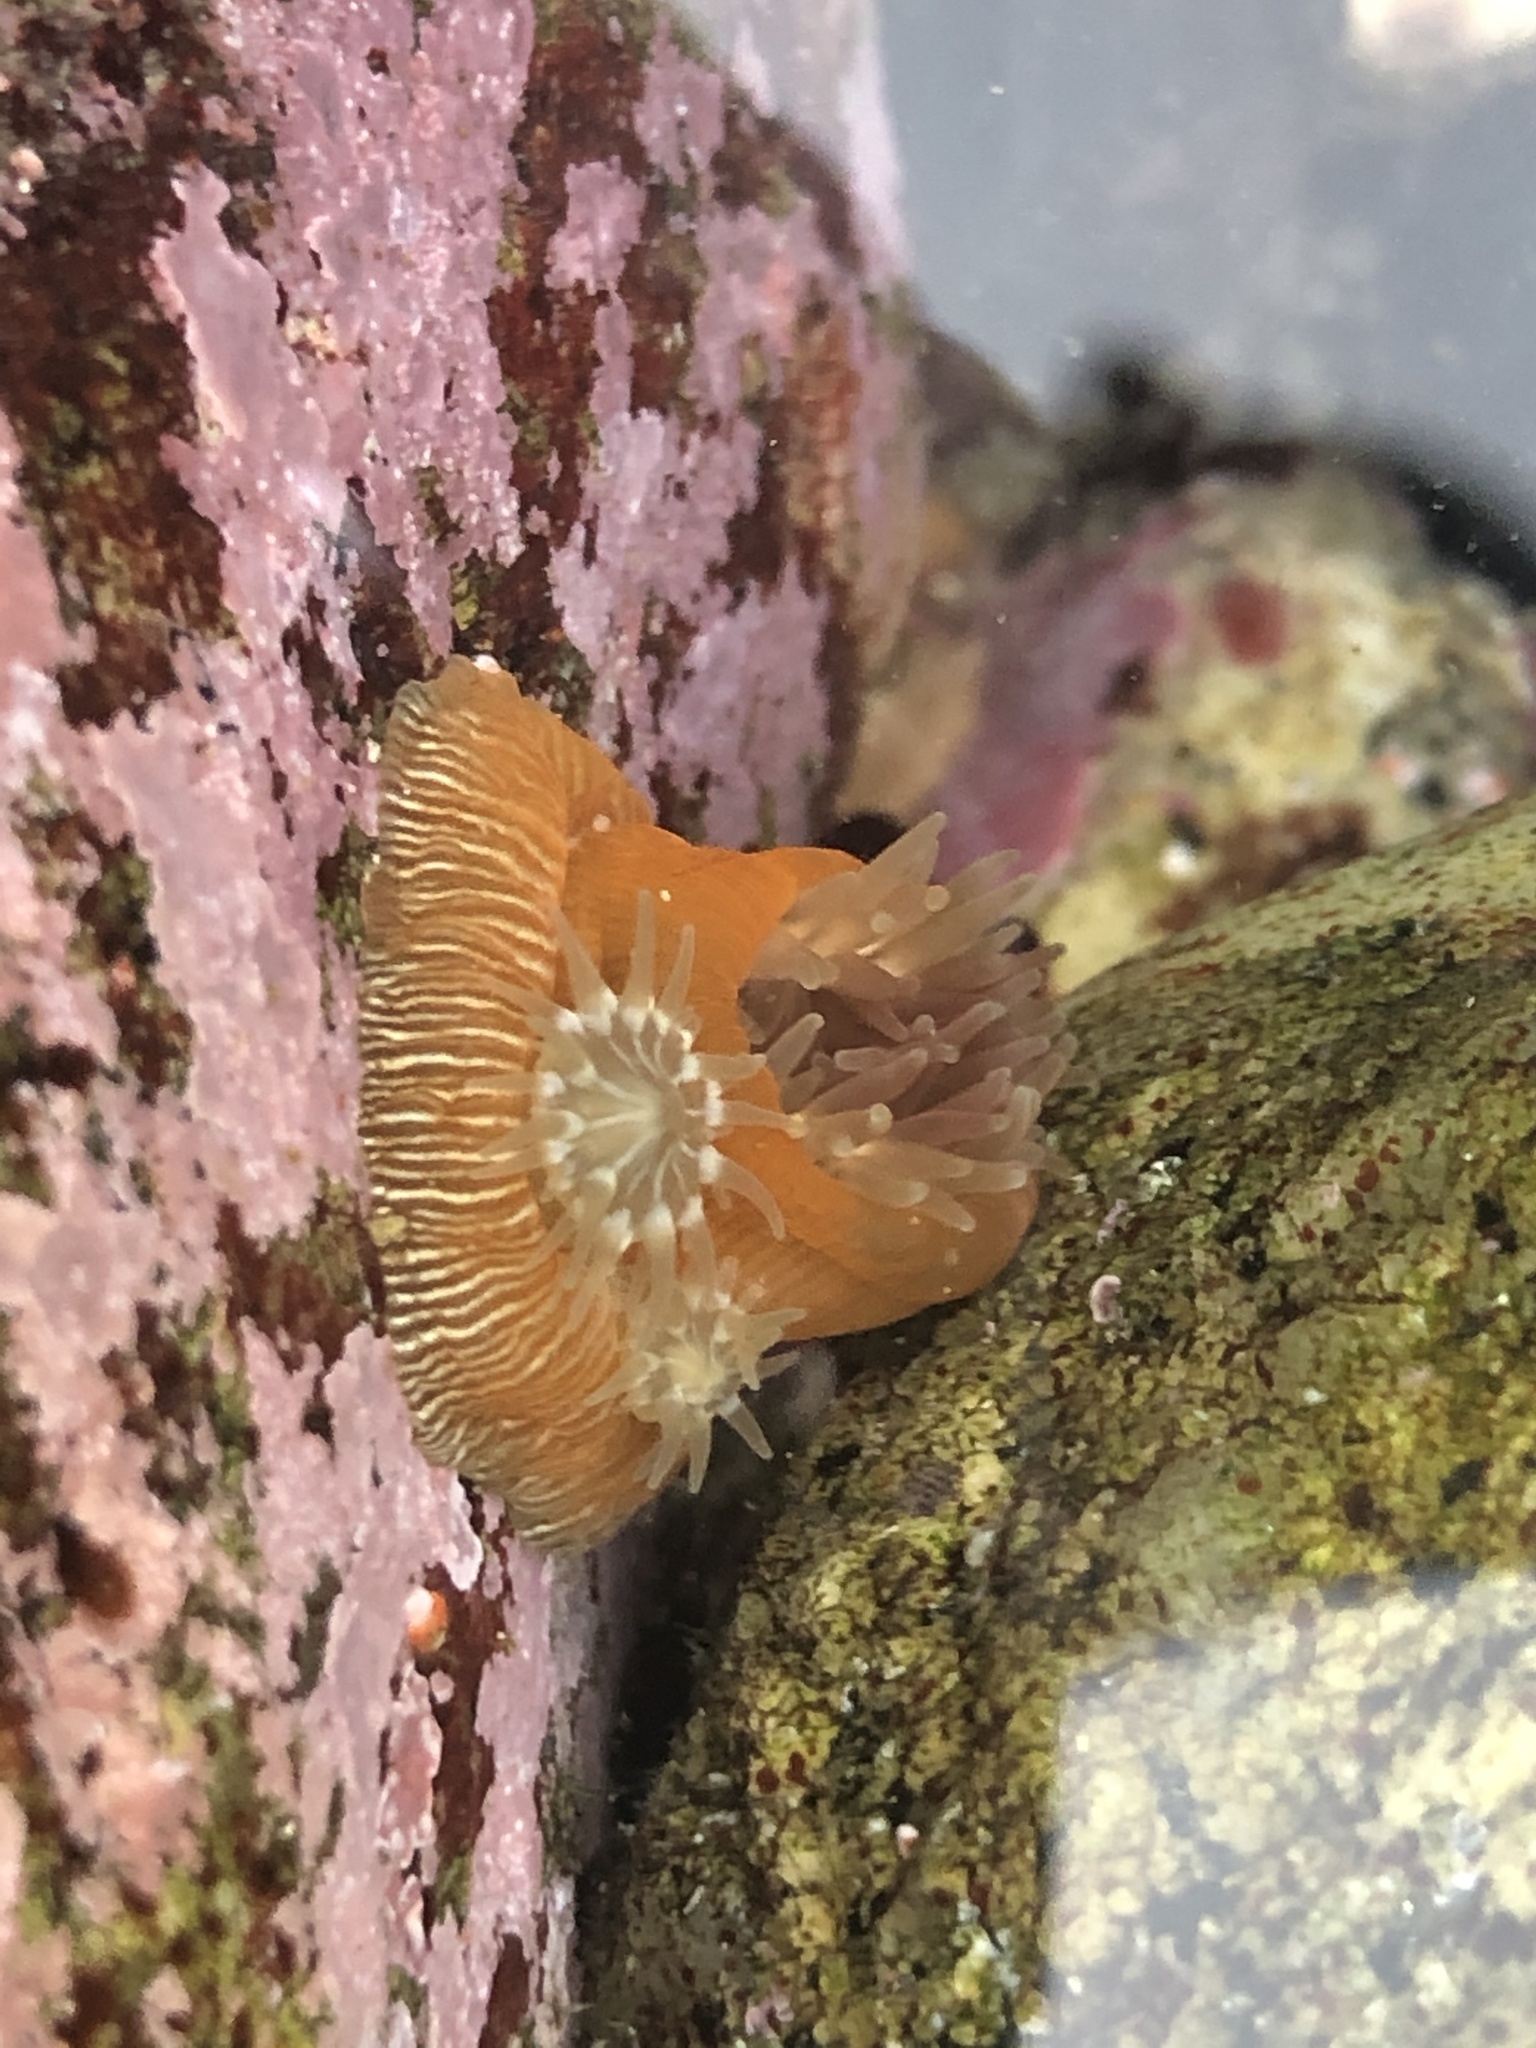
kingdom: Animalia
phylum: Cnidaria
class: Anthozoa
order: Actiniaria
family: Actiniidae
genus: Epiactis
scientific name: Epiactis prolifera
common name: Brooding anemone
